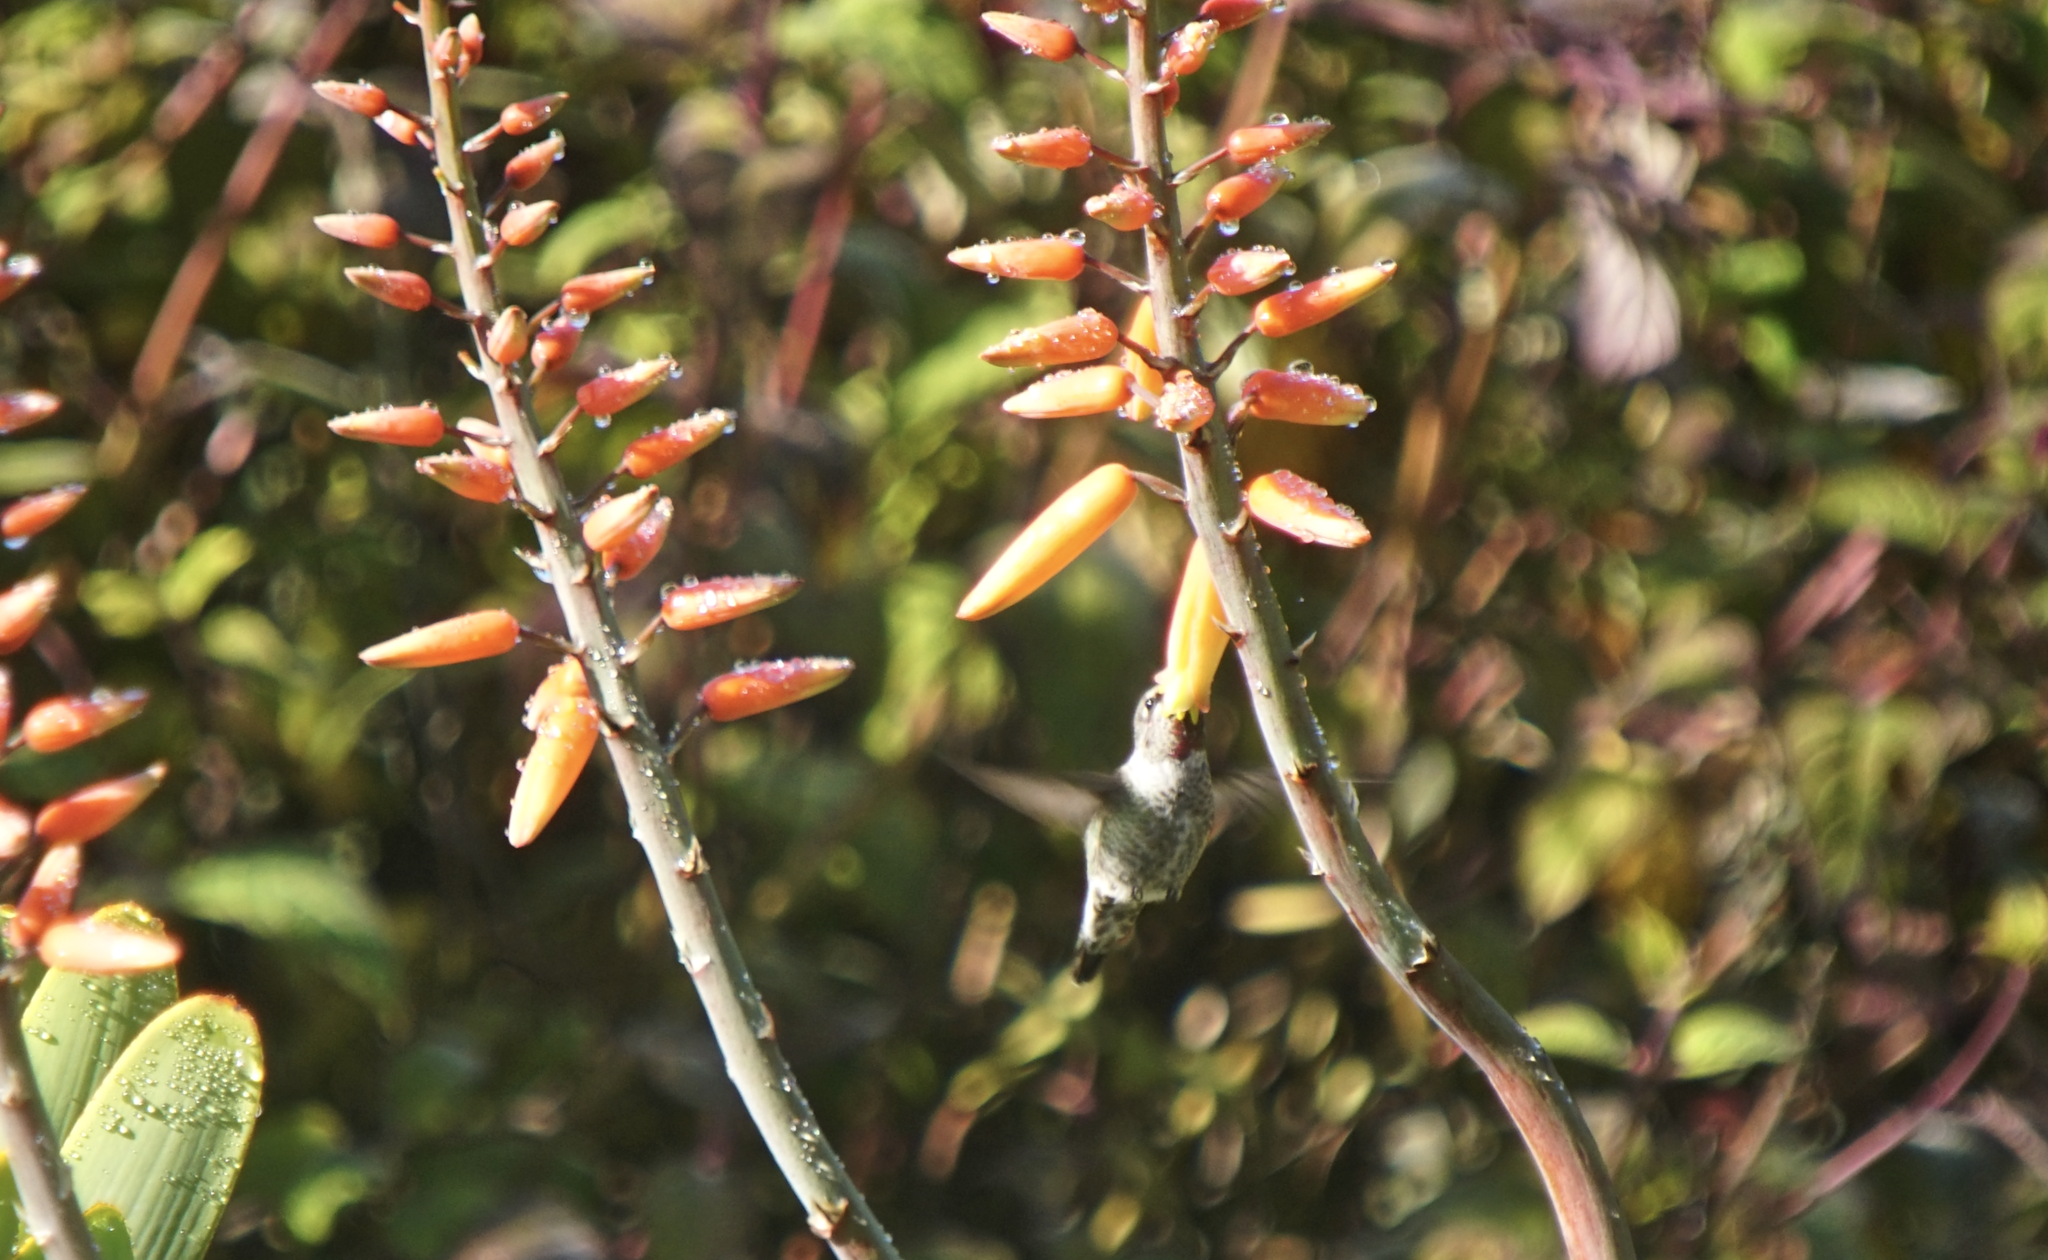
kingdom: Animalia
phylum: Chordata
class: Aves
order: Apodiformes
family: Trochilidae
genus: Calypte
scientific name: Calypte anna
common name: Anna's hummingbird
